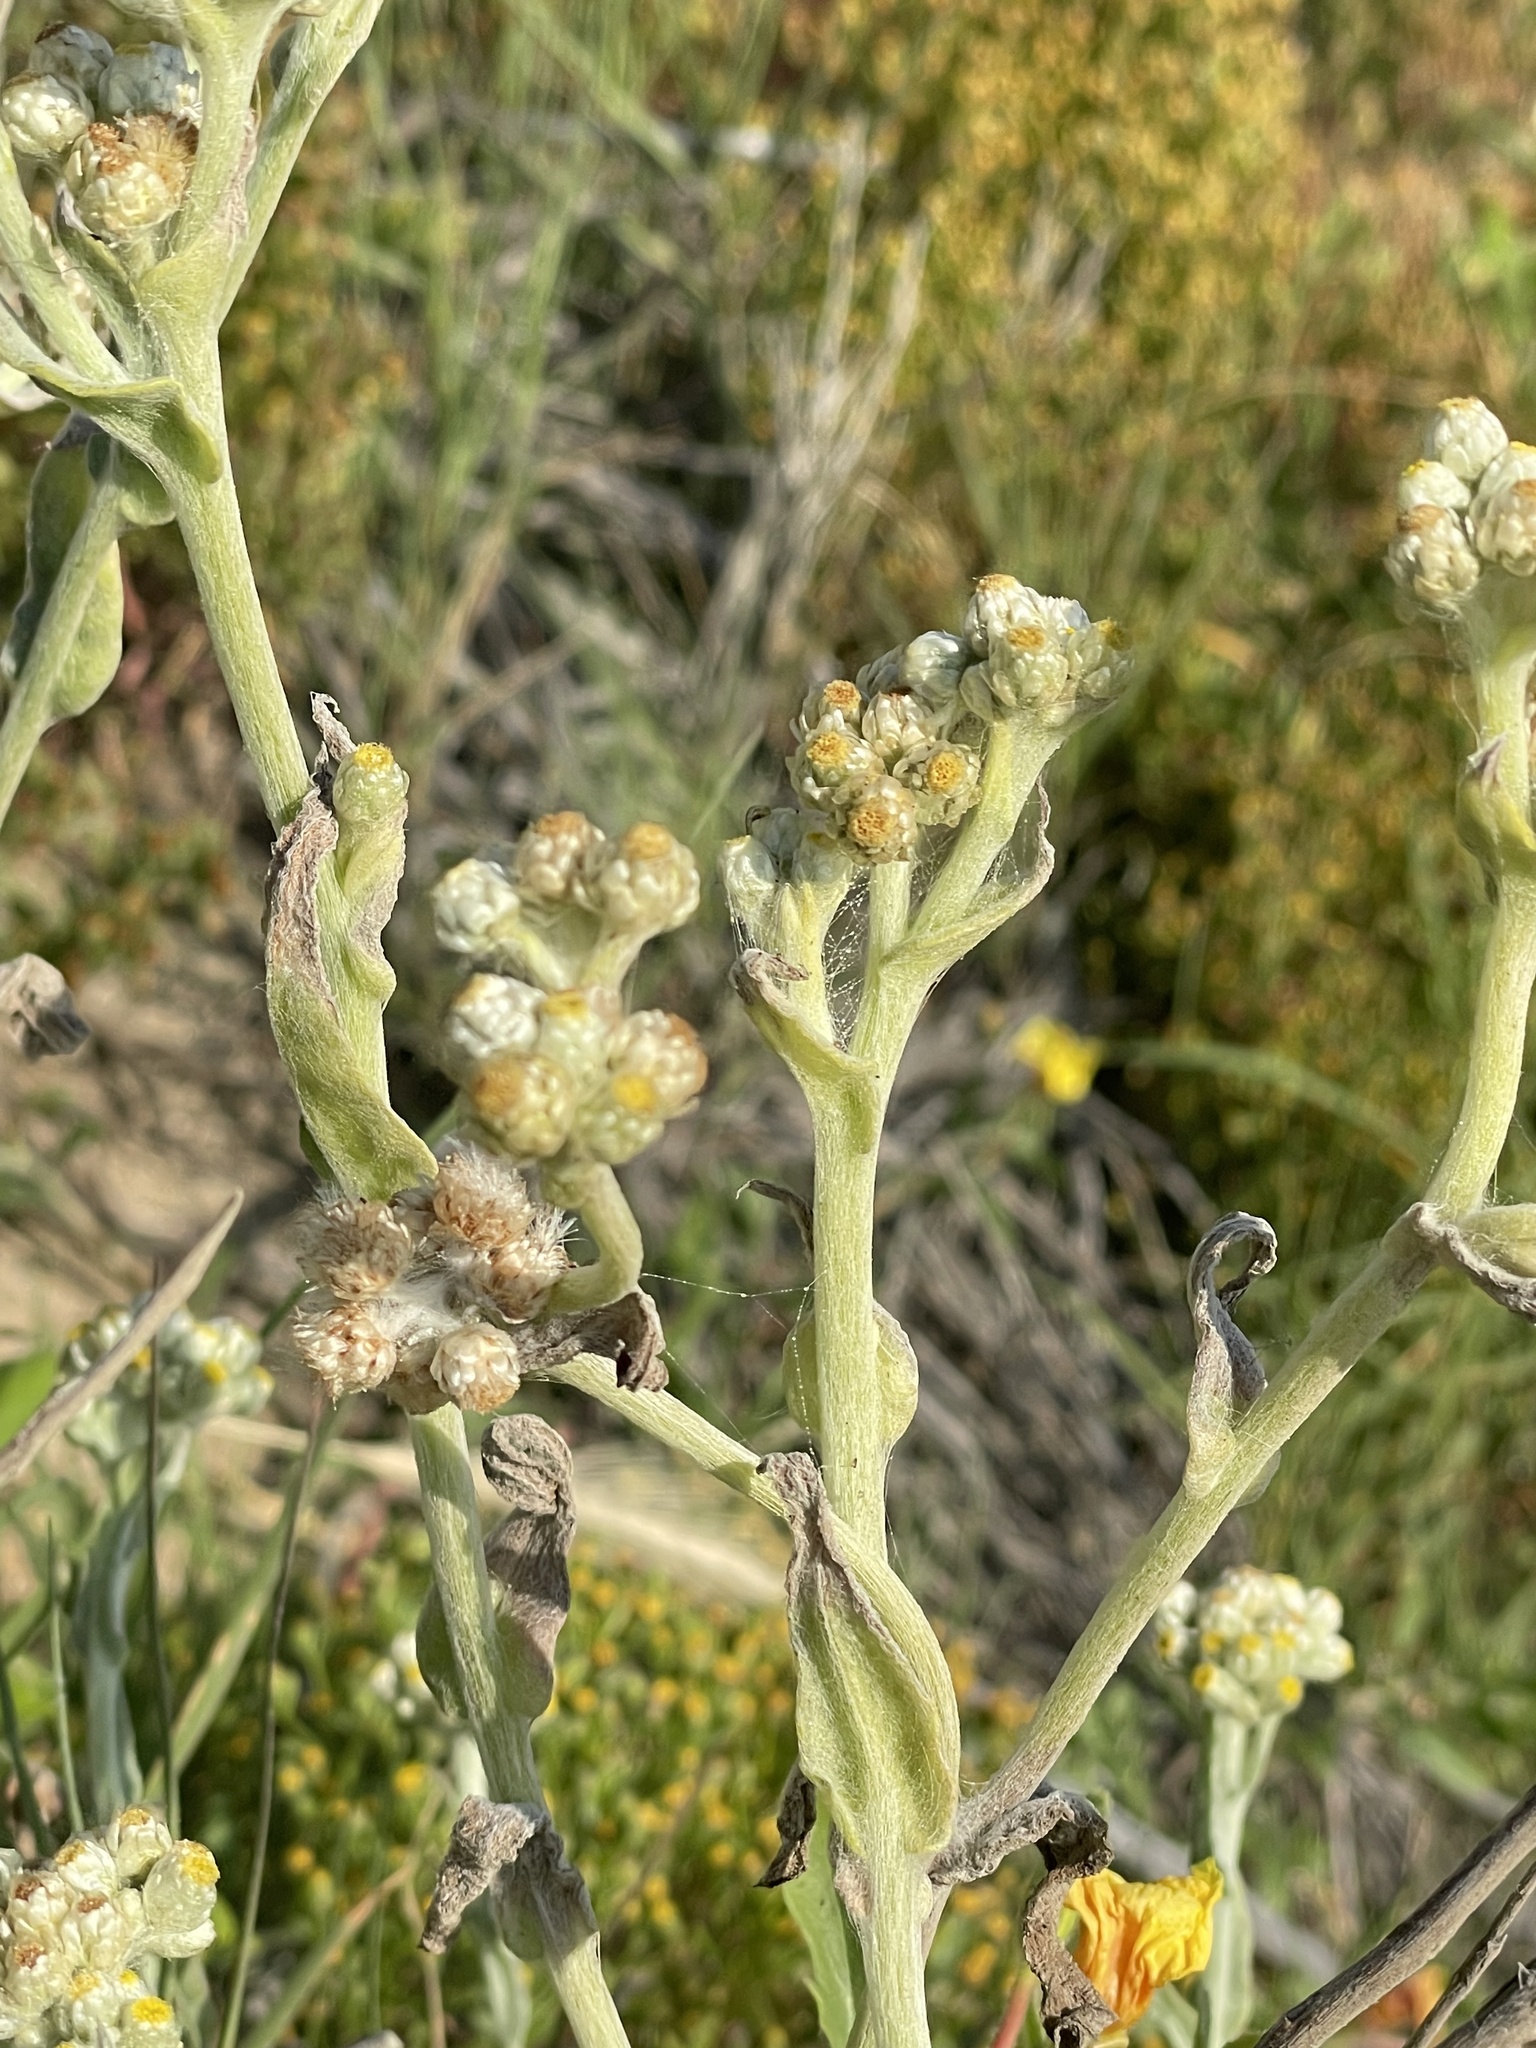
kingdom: Plantae
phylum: Tracheophyta
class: Magnoliopsida
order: Asterales
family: Asteraceae
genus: Pseudognaphalium
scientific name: Pseudognaphalium stramineum
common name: Cotton-batting-plant
